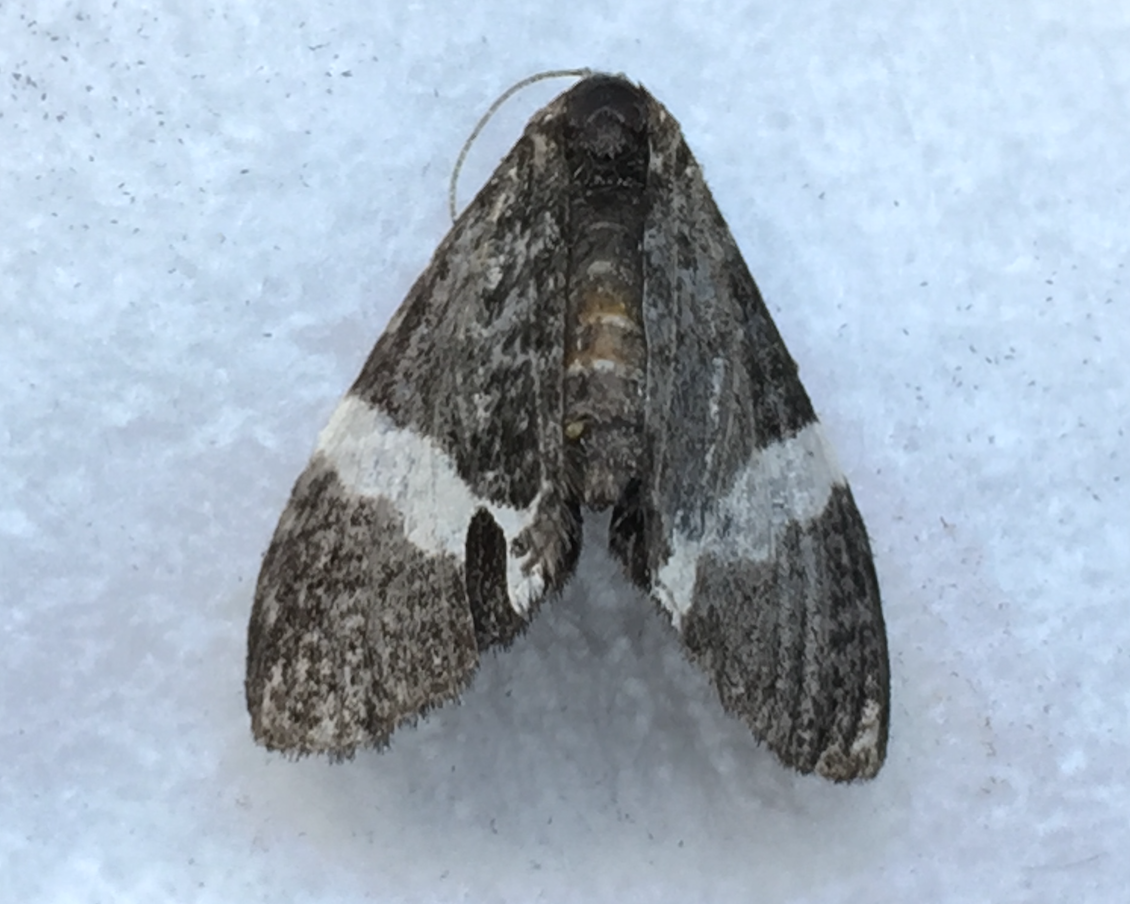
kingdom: Animalia
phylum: Arthropoda
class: Insecta
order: Lepidoptera
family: Geometridae
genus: Trichodezia
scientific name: Trichodezia albovittata
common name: White striped black
